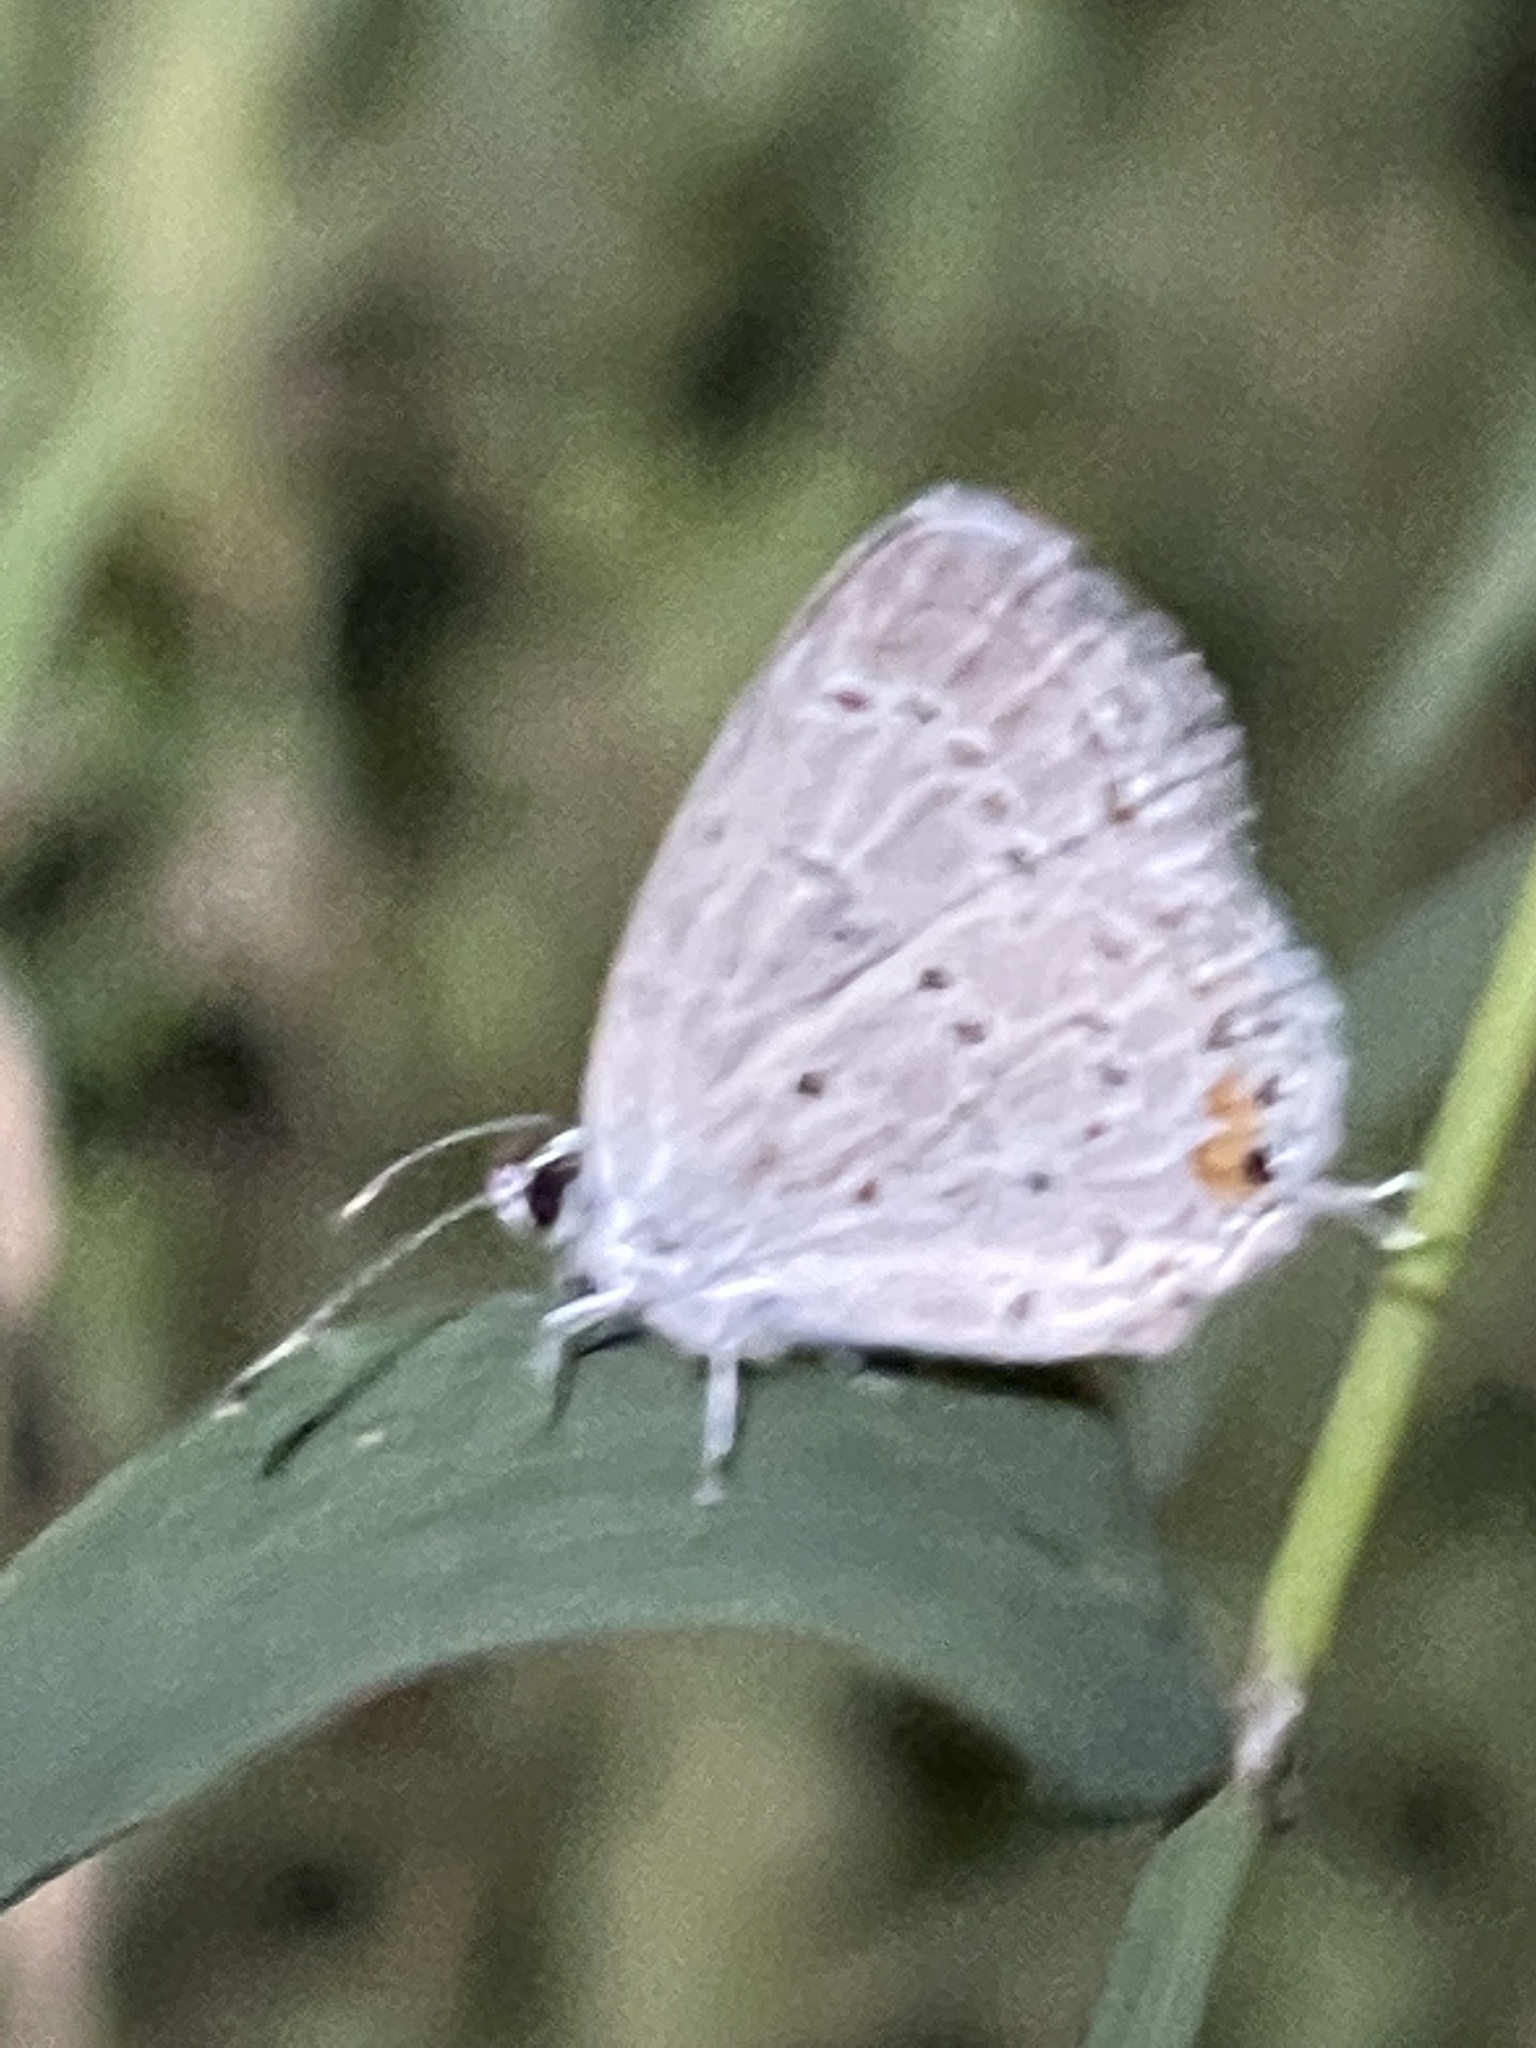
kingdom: Animalia
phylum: Arthropoda
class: Insecta
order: Lepidoptera
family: Lycaenidae
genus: Elkalyce
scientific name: Elkalyce comyntas
